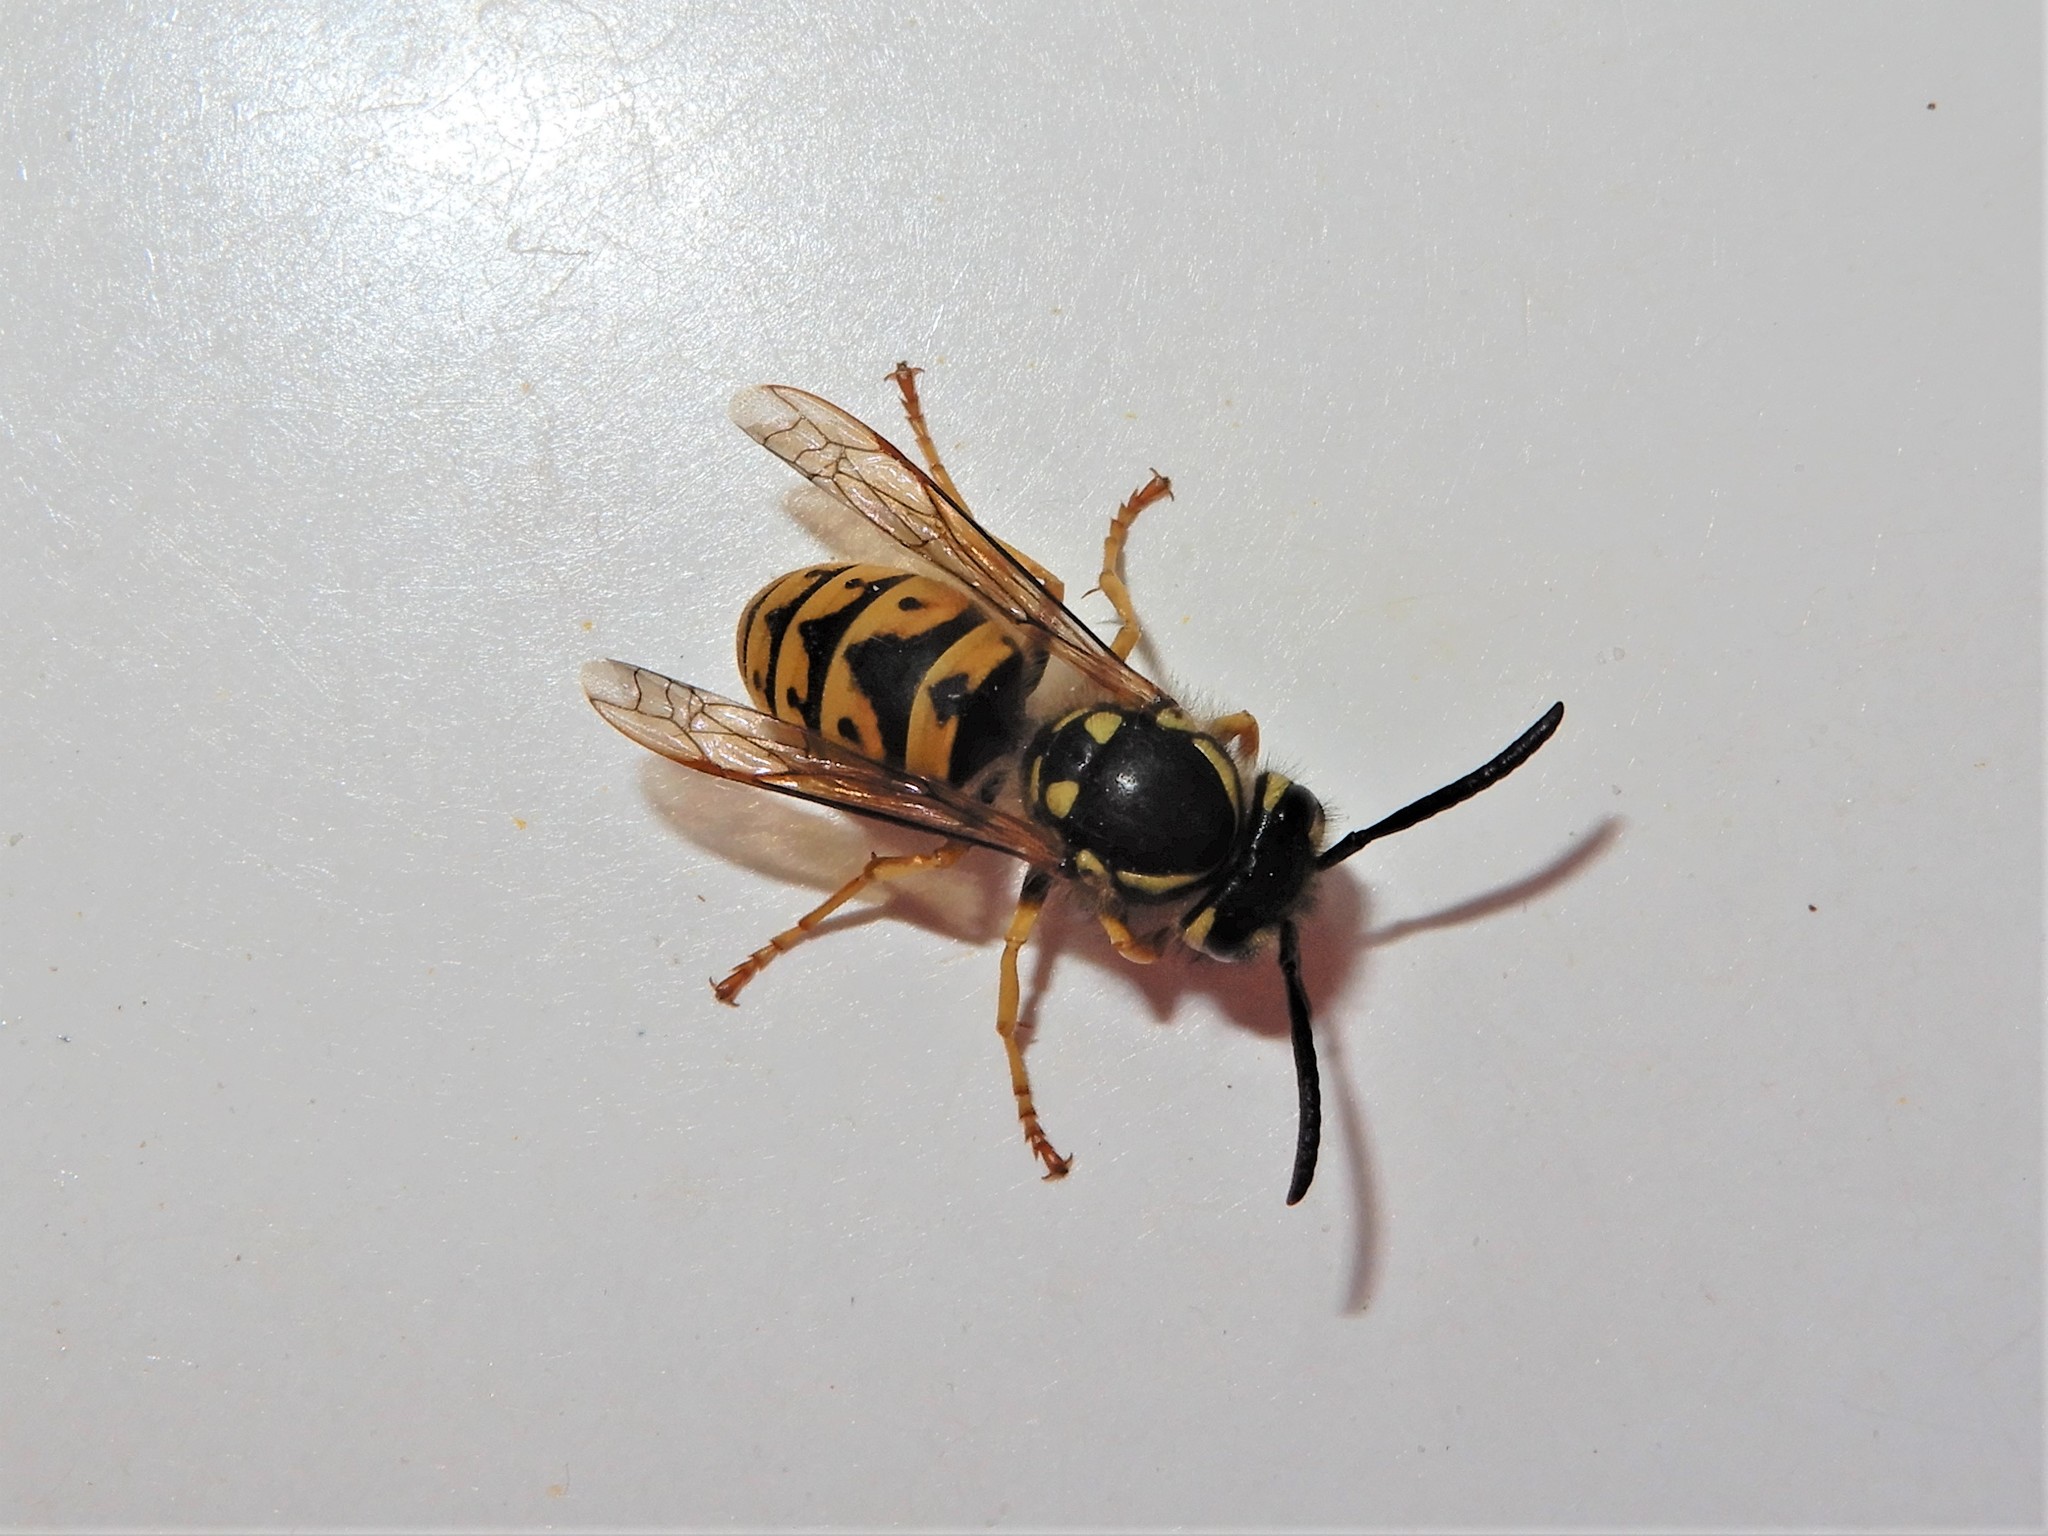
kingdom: Animalia
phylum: Arthropoda
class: Insecta
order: Hymenoptera
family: Vespidae
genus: Vespula
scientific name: Vespula germanica
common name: German wasp
